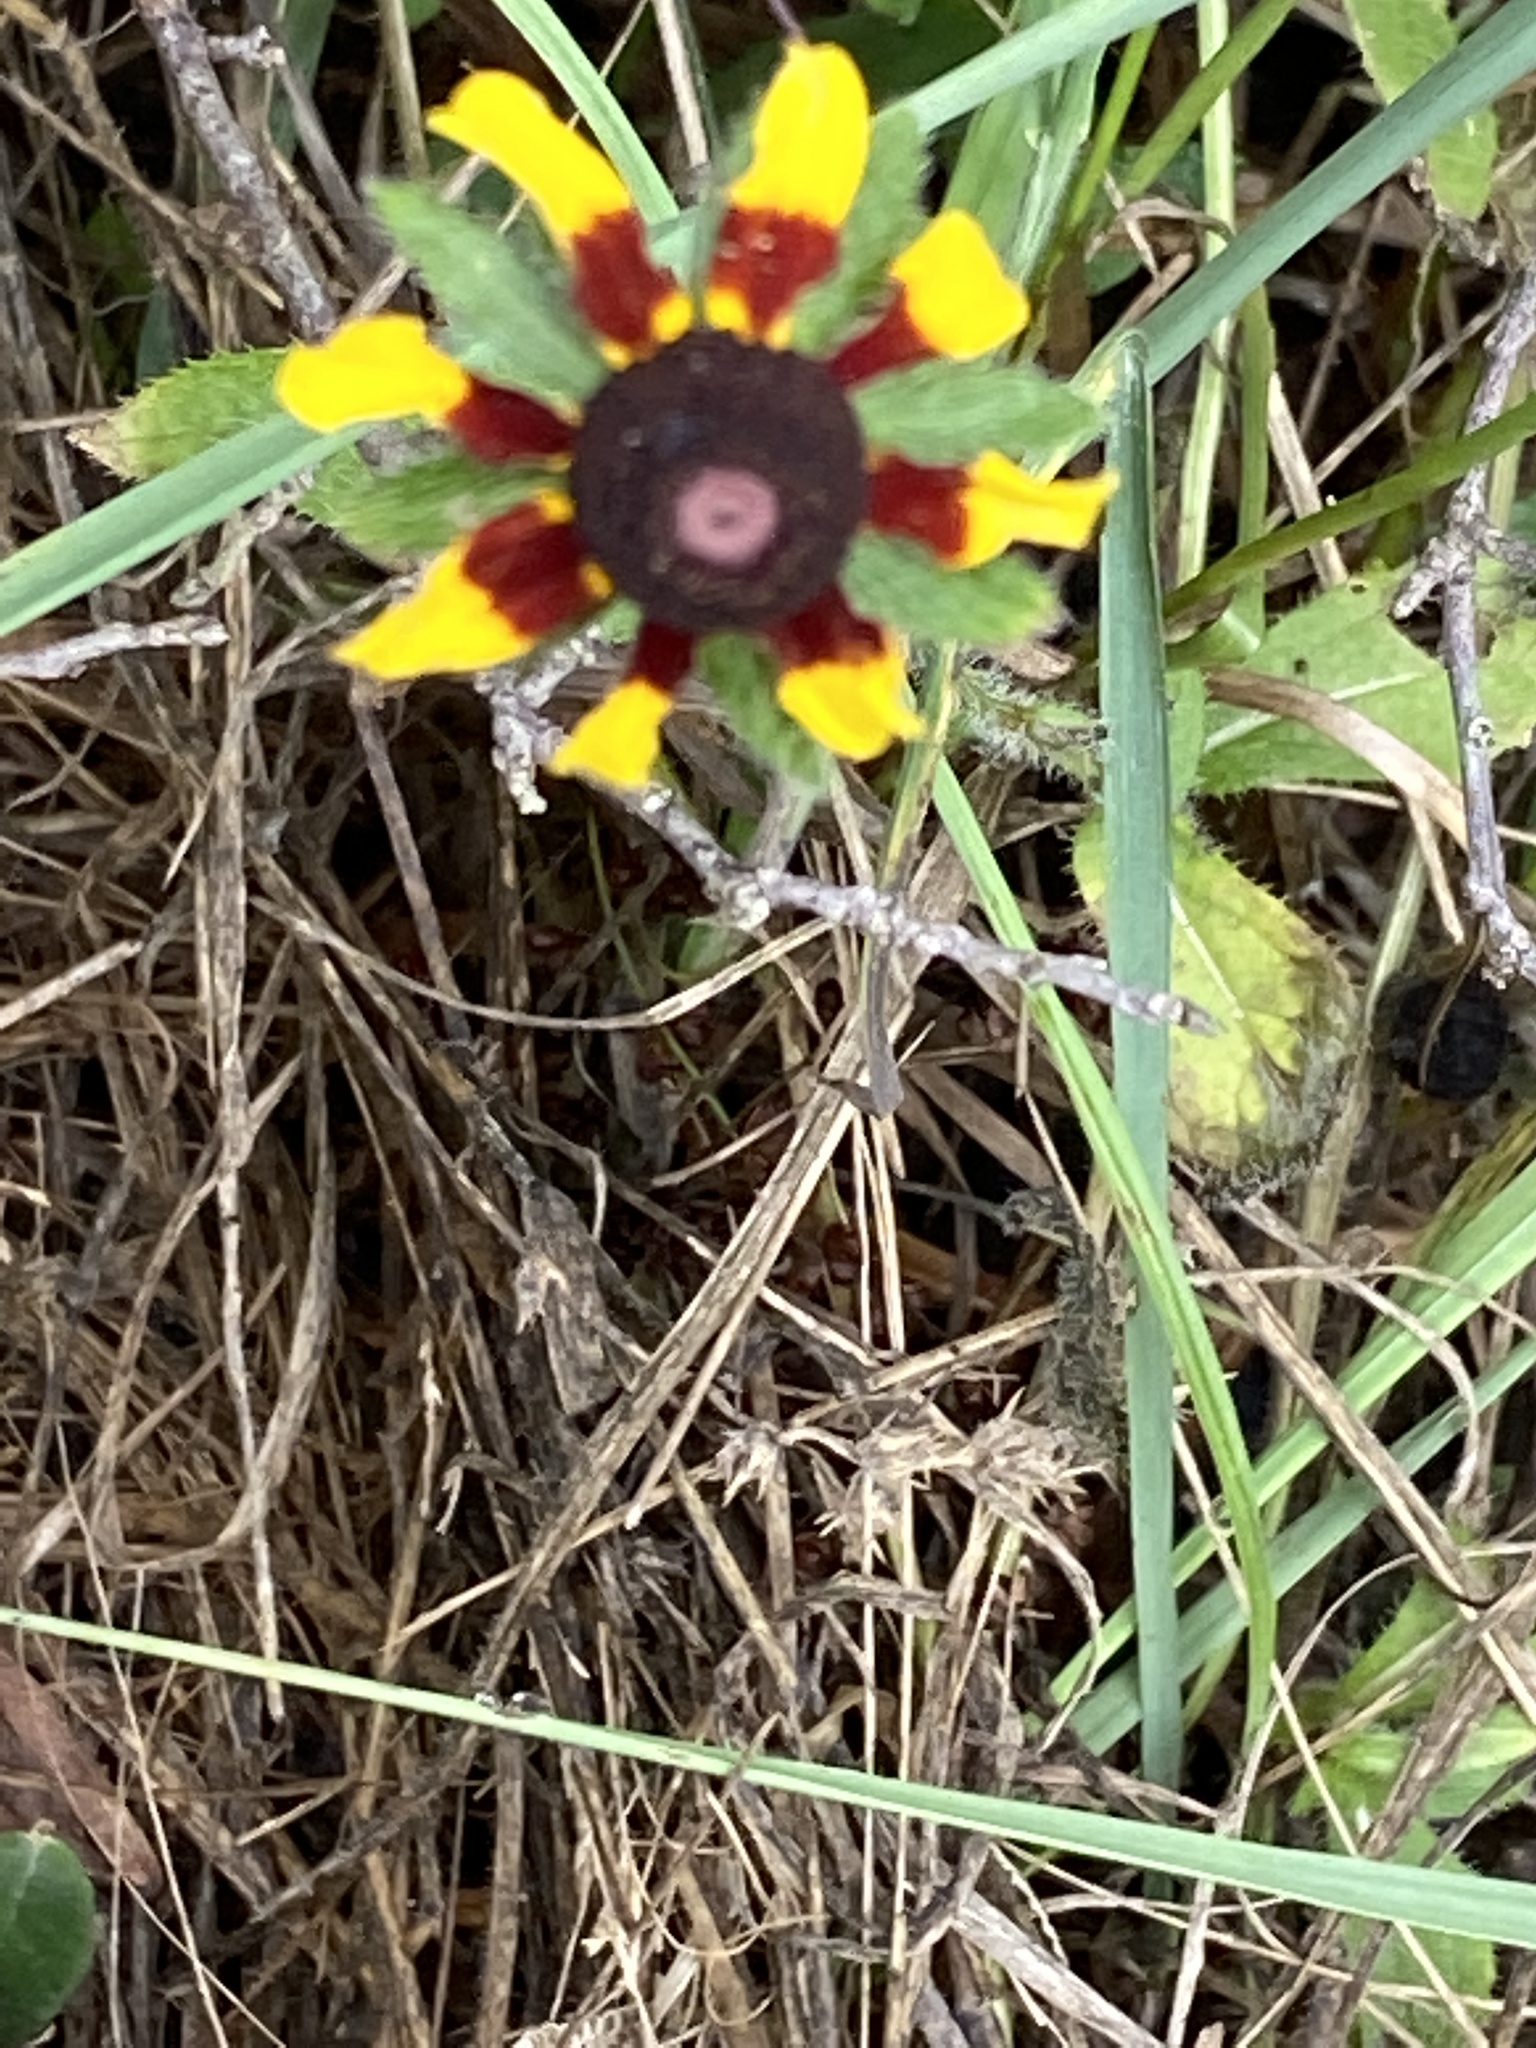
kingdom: Plantae
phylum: Tracheophyta
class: Magnoliopsida
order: Asterales
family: Asteraceae
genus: Rudbeckia
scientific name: Rudbeckia hirta
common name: Black-eyed-susan
